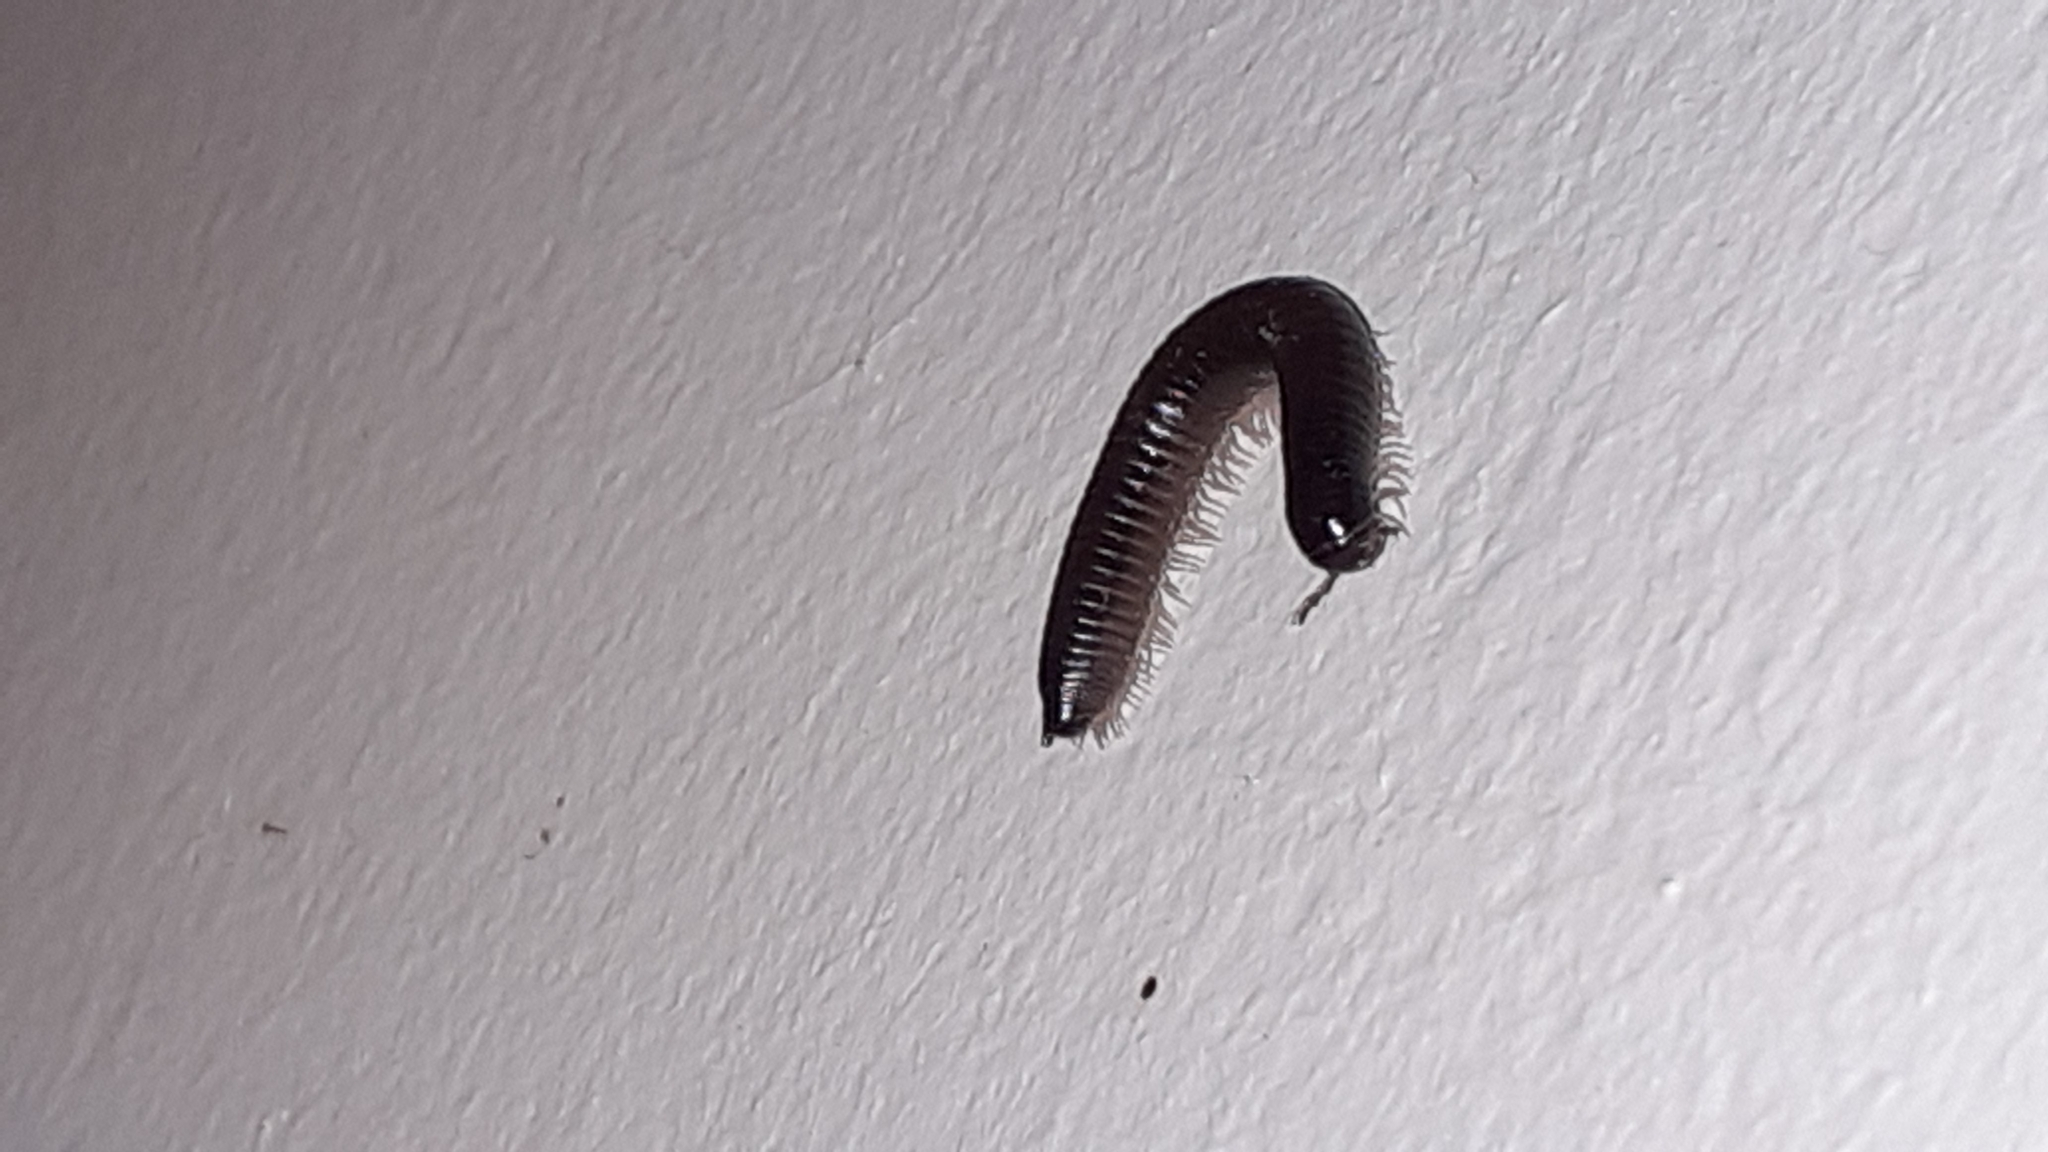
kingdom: Animalia
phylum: Arthropoda
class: Diplopoda
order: Julida
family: Julidae
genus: Ommatoiulus
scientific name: Ommatoiulus moreleti
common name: Portuguese millipede
